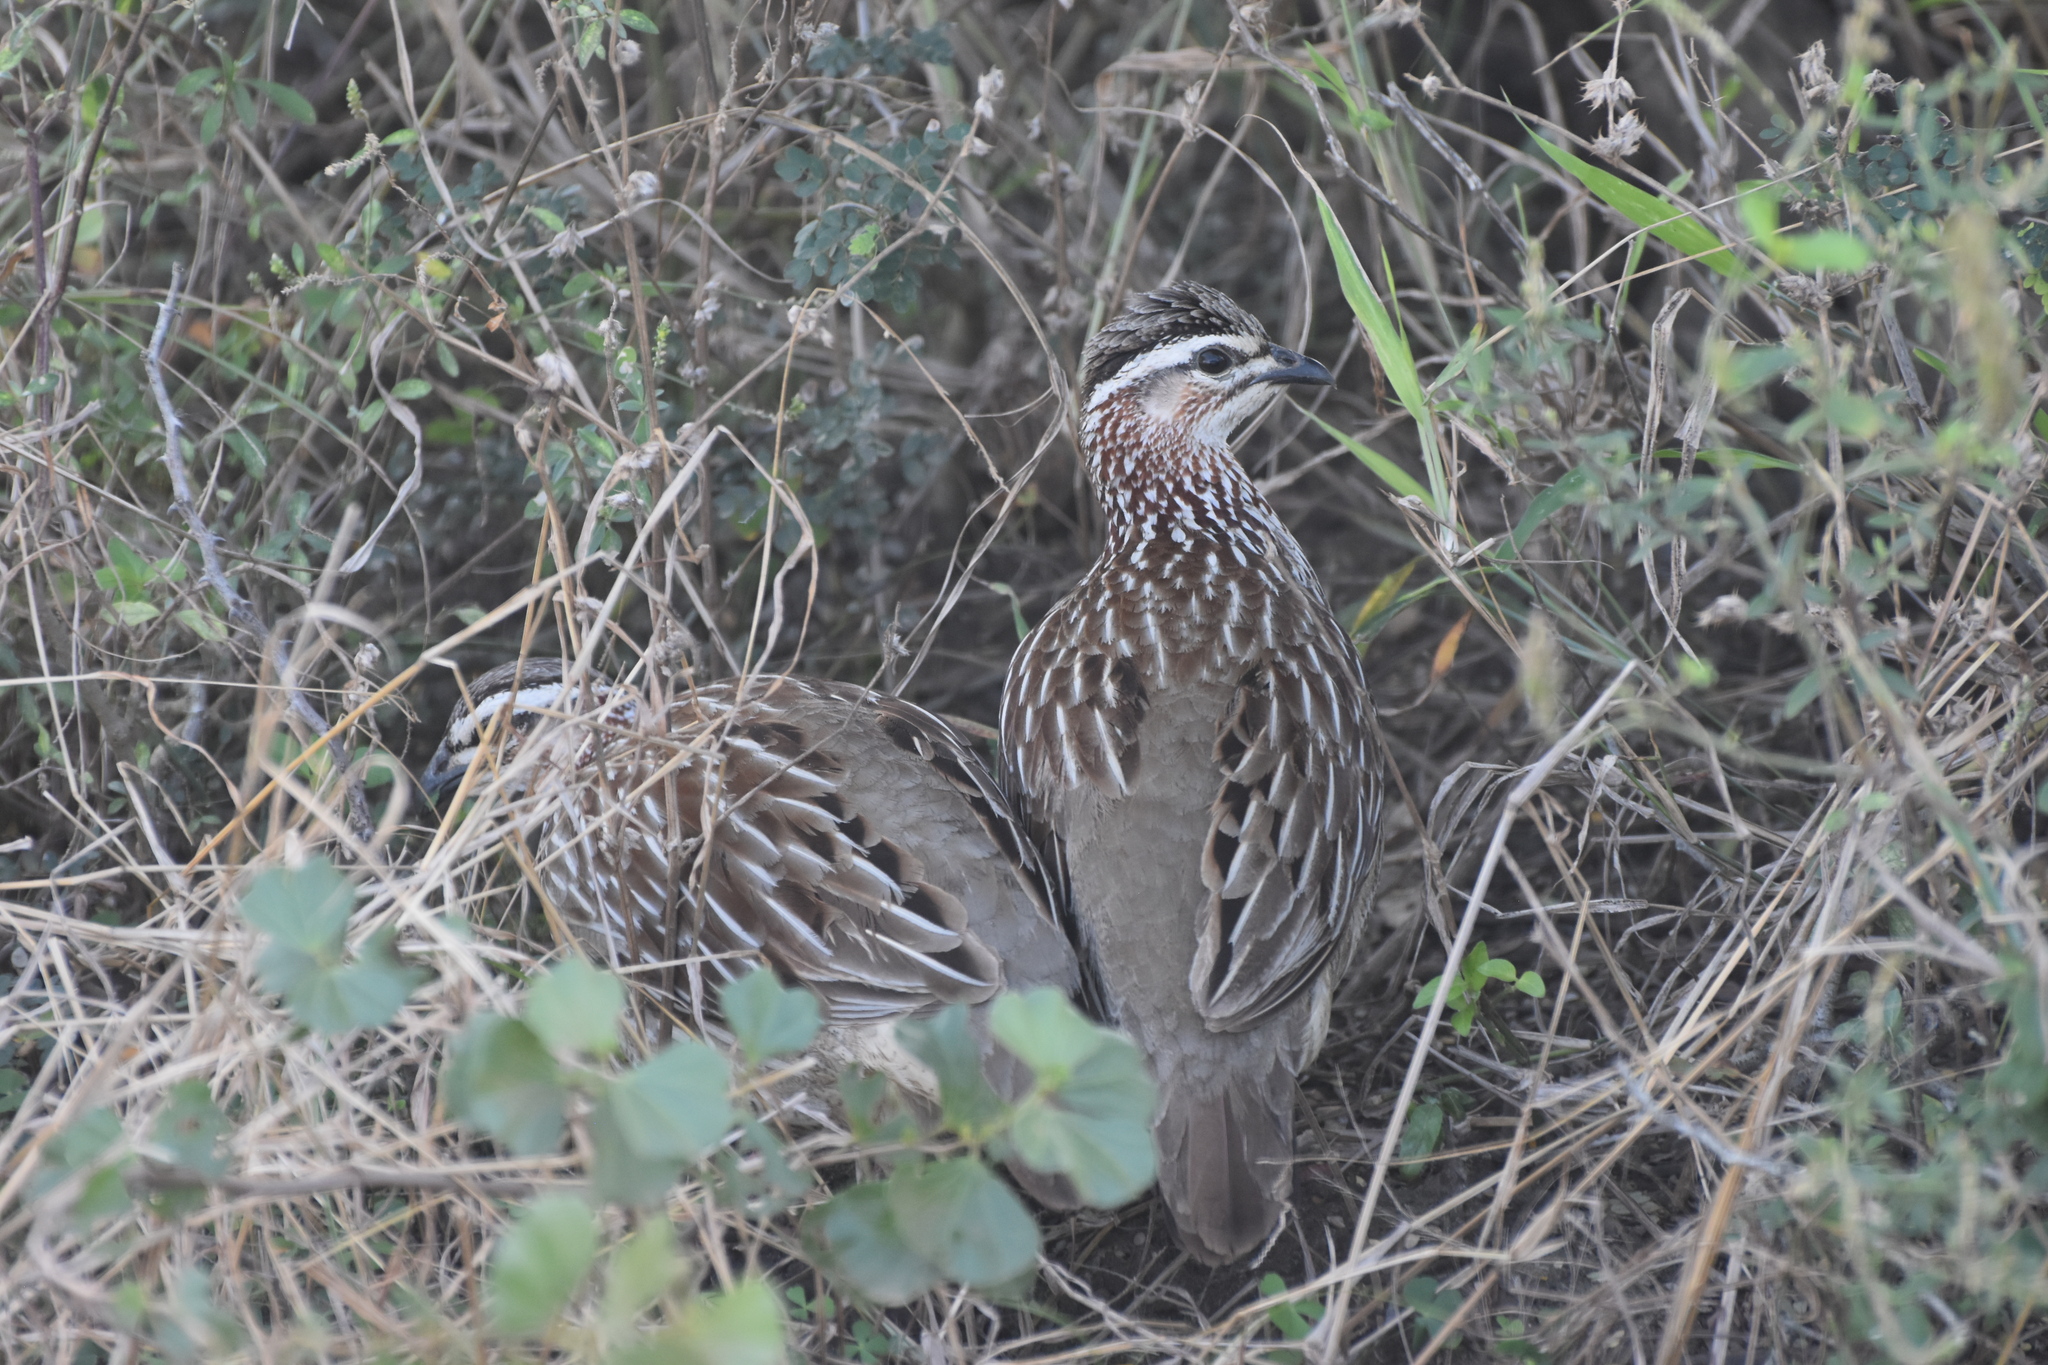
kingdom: Animalia
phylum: Chordata
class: Aves
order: Galliformes
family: Phasianidae
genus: Ortygornis
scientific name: Ortygornis sephaena
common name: Crested francolin
